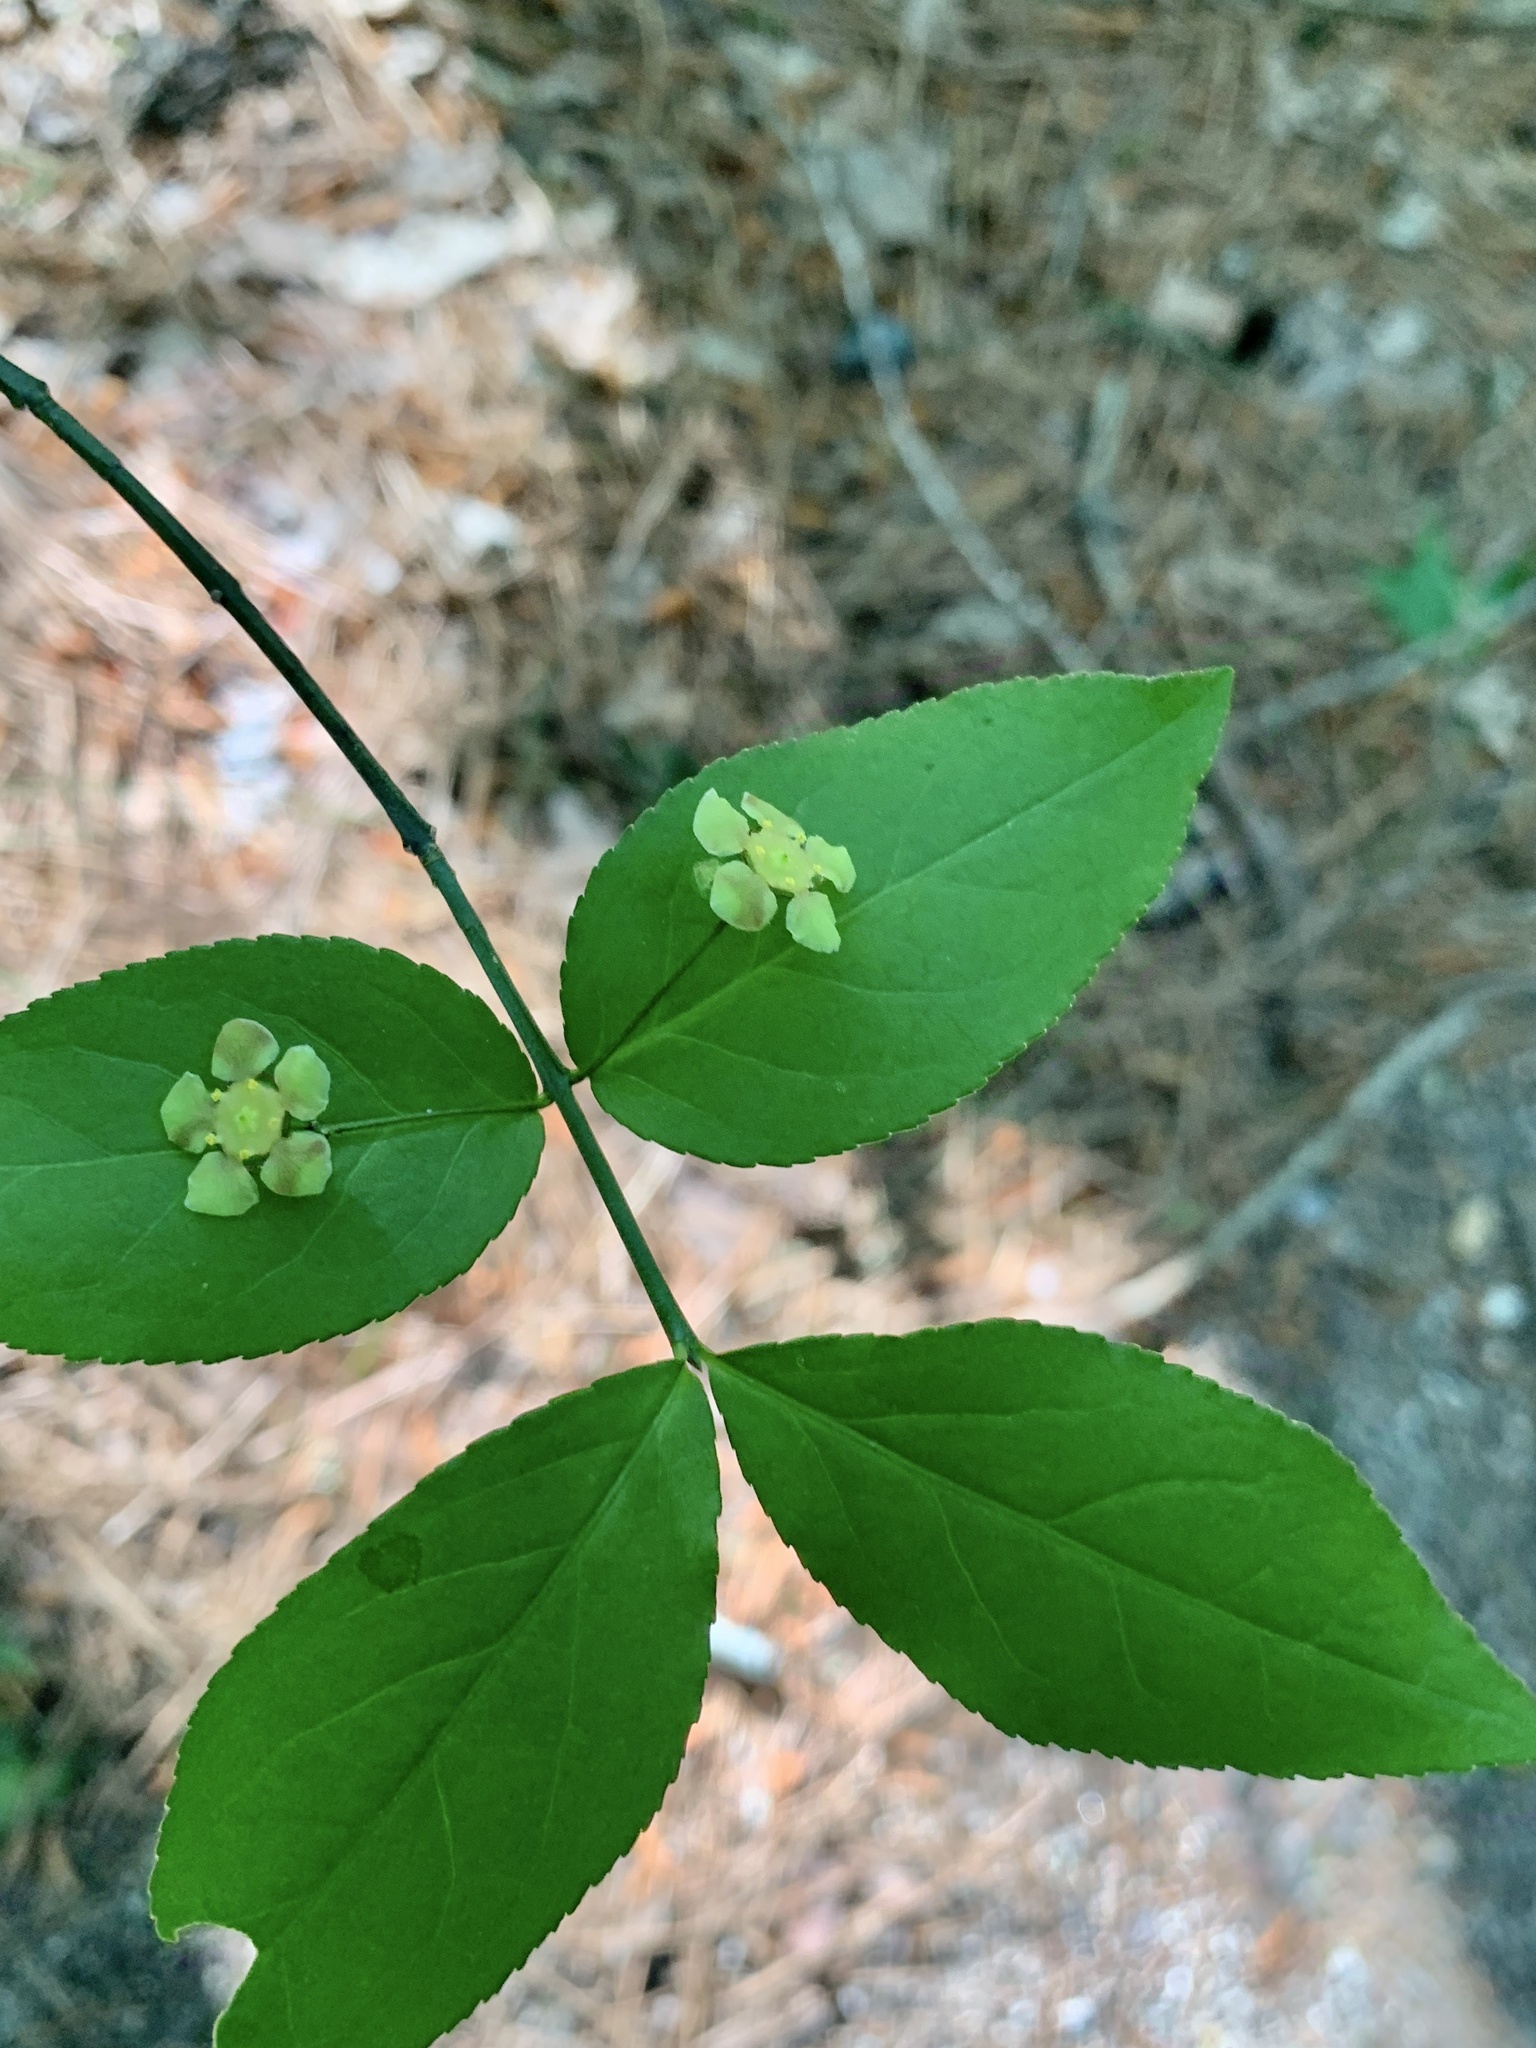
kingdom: Plantae
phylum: Tracheophyta
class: Magnoliopsida
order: Celastrales
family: Celastraceae
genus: Euonymus
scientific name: Euonymus americanus
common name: Bursting-heart
